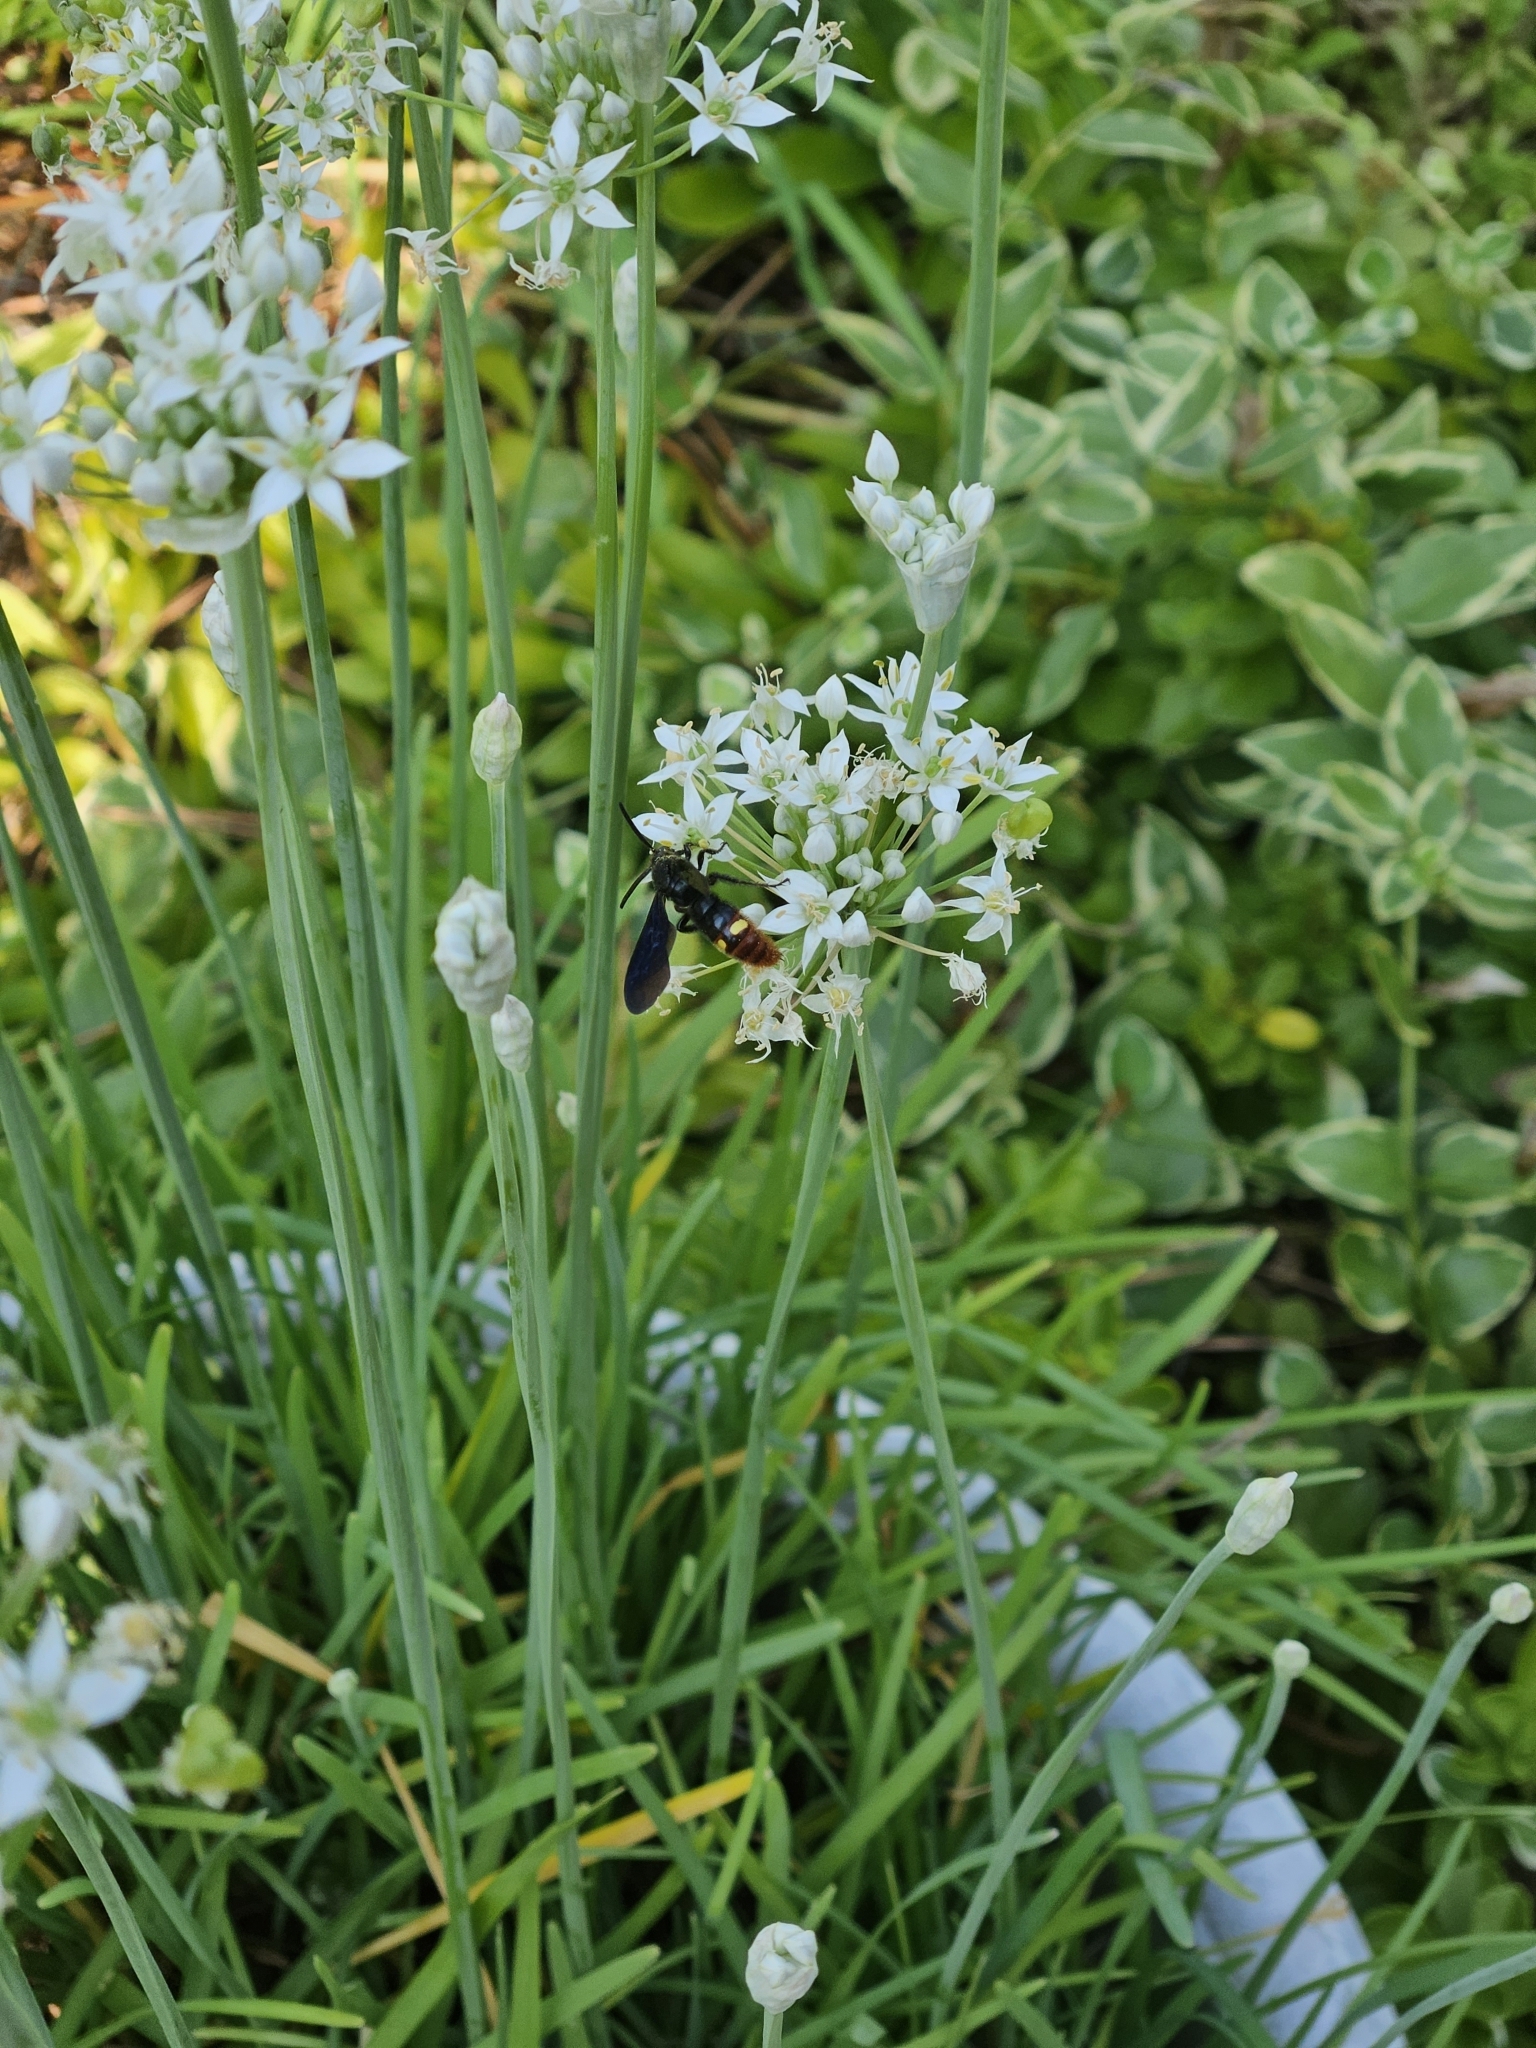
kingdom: Animalia
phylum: Arthropoda
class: Insecta
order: Hymenoptera
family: Scoliidae
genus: Scolia
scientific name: Scolia dubia
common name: Blue-winged scoliid wasp
